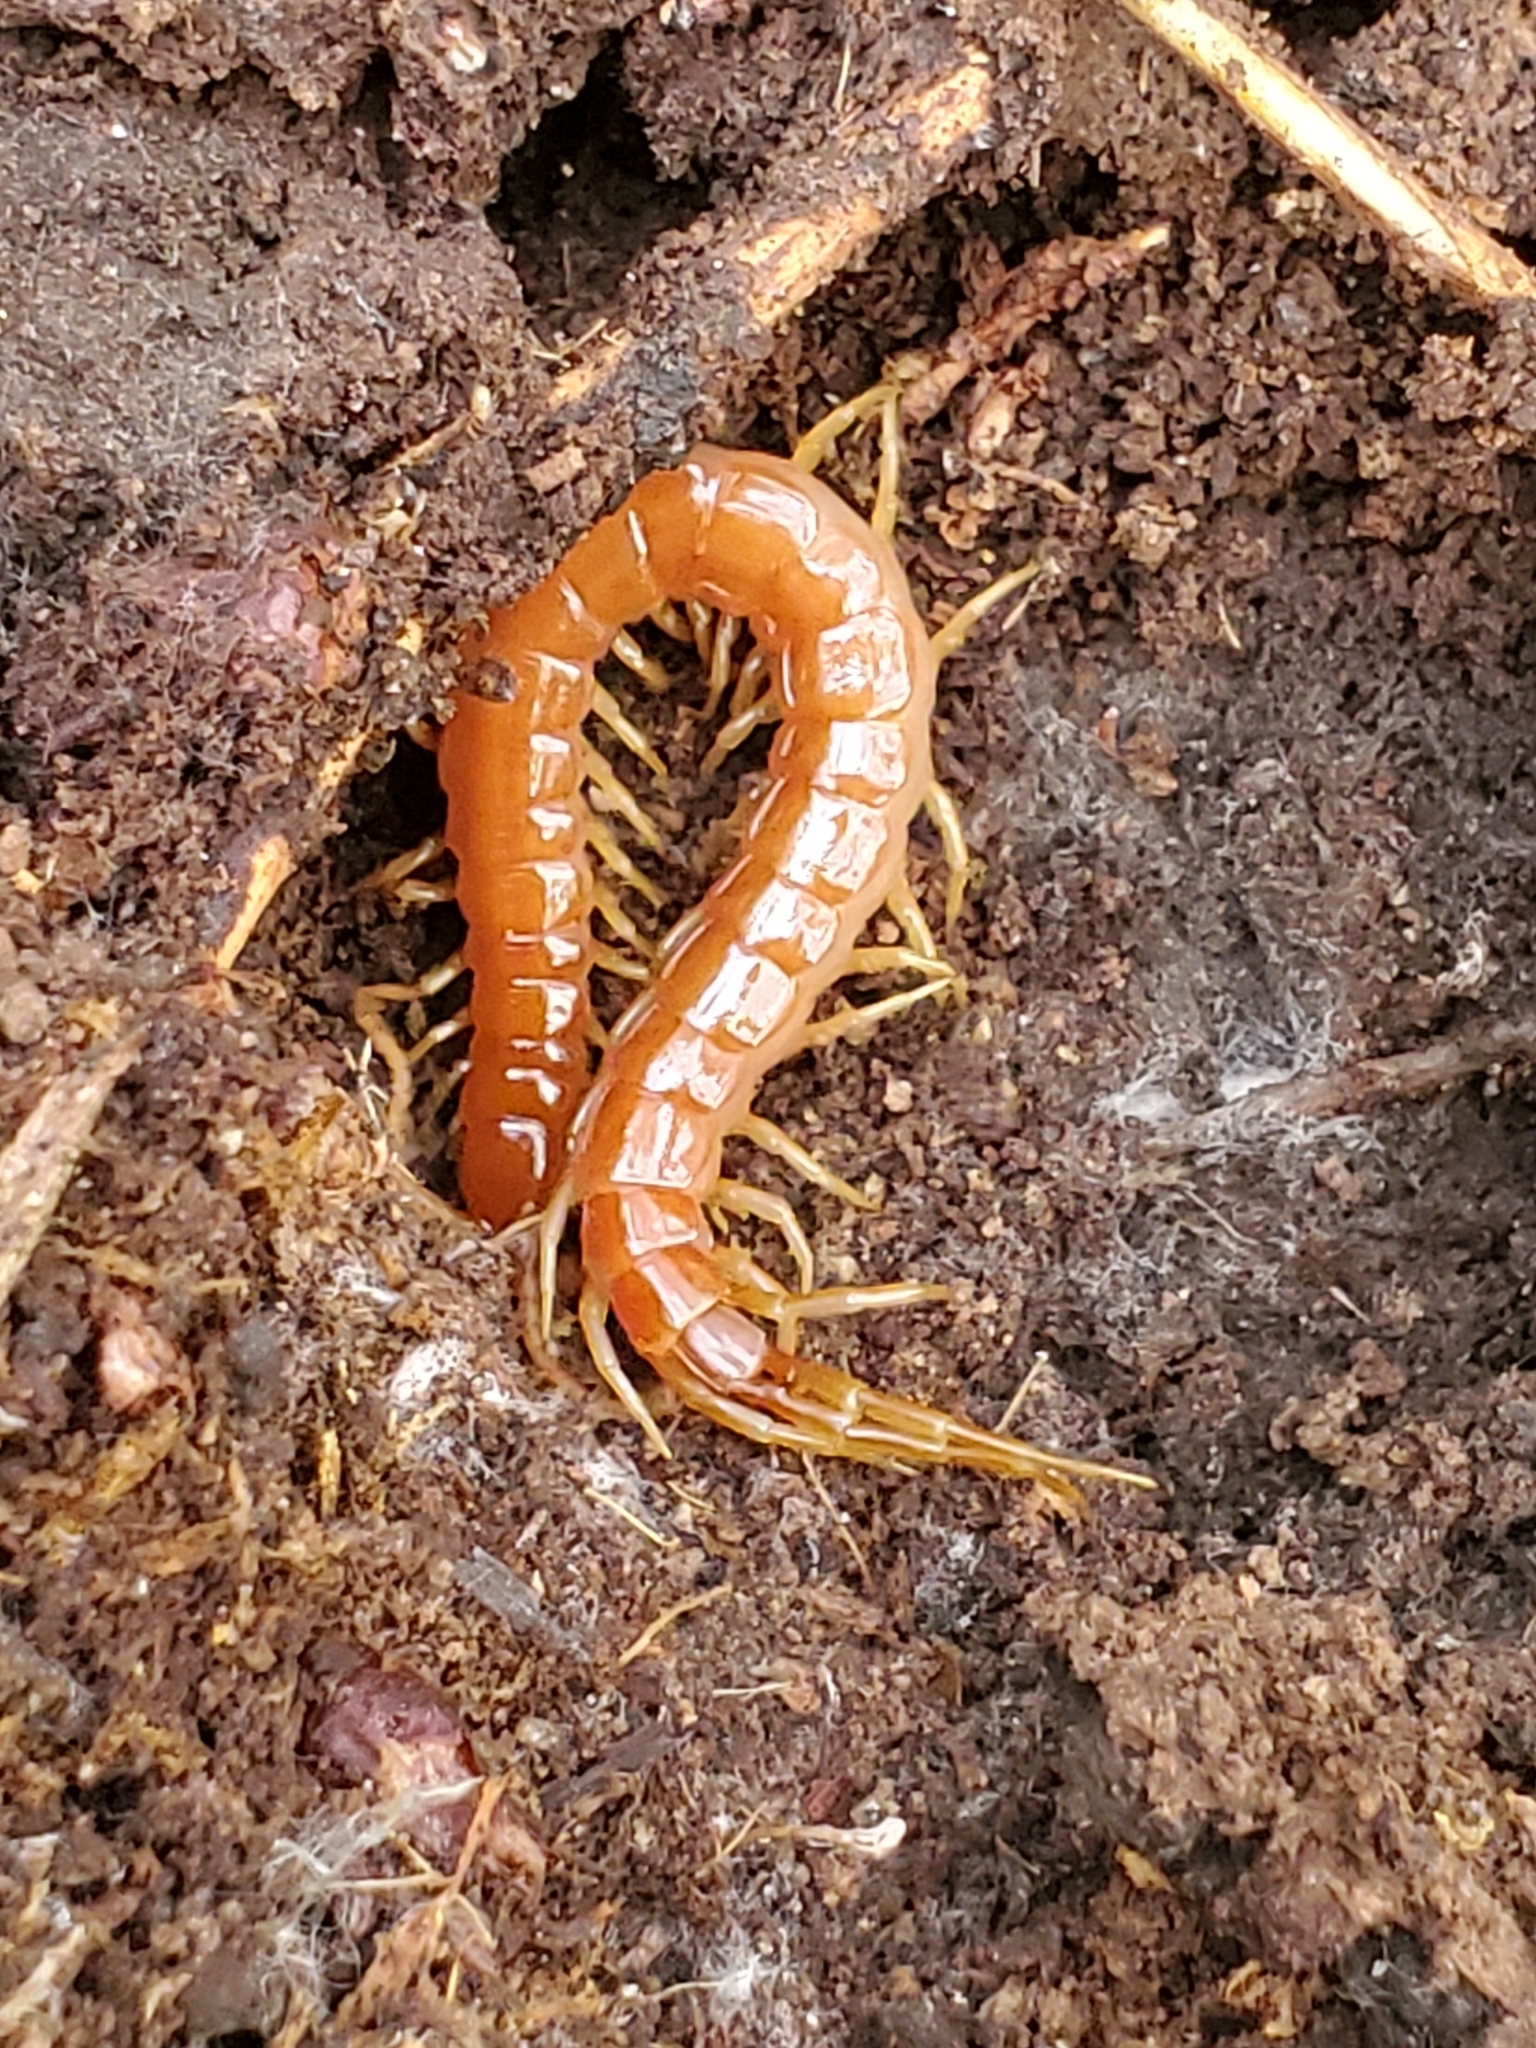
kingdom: Animalia
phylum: Arthropoda
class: Chilopoda
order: Scolopendromorpha
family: Scolopocryptopidae
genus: Scolopocryptops
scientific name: Scolopocryptops spinicaudus
